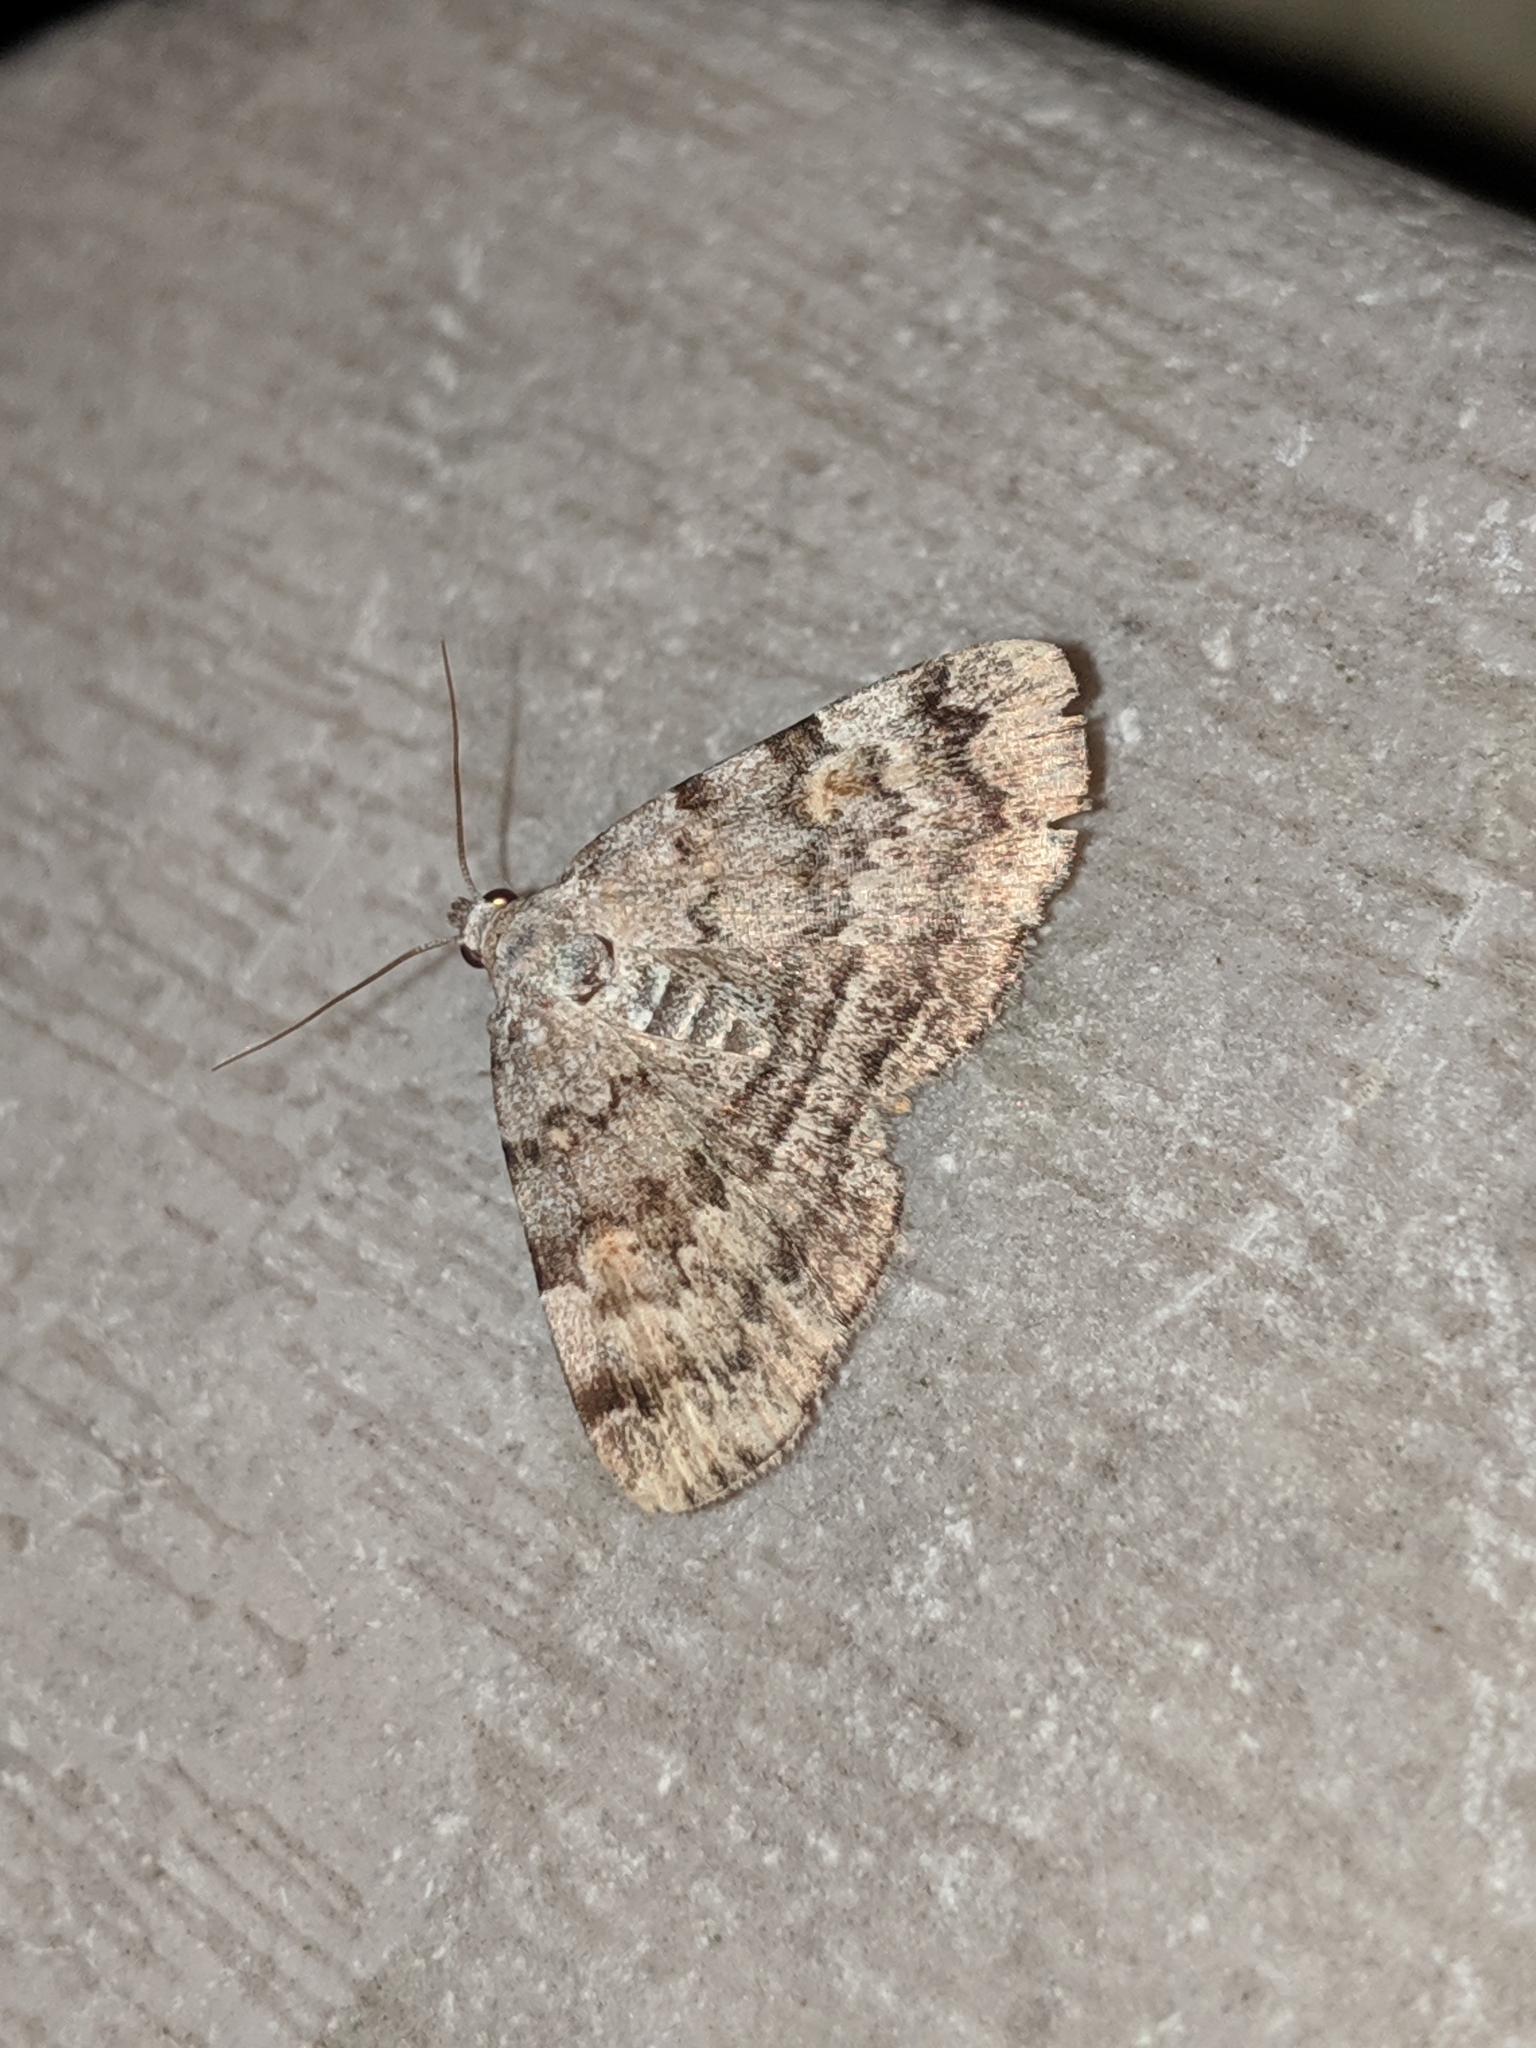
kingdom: Animalia
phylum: Arthropoda
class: Insecta
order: Lepidoptera
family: Erebidae
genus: Idia
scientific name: Idia americalis
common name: American idia moth
